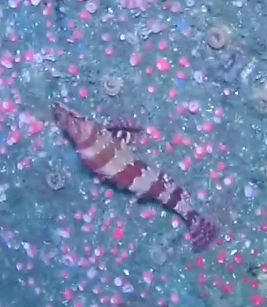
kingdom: Animalia
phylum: Chordata
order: Scorpaeniformes
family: Hexagrammidae
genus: Oxylebius
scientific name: Oxylebius pictus
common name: Painted greenling
